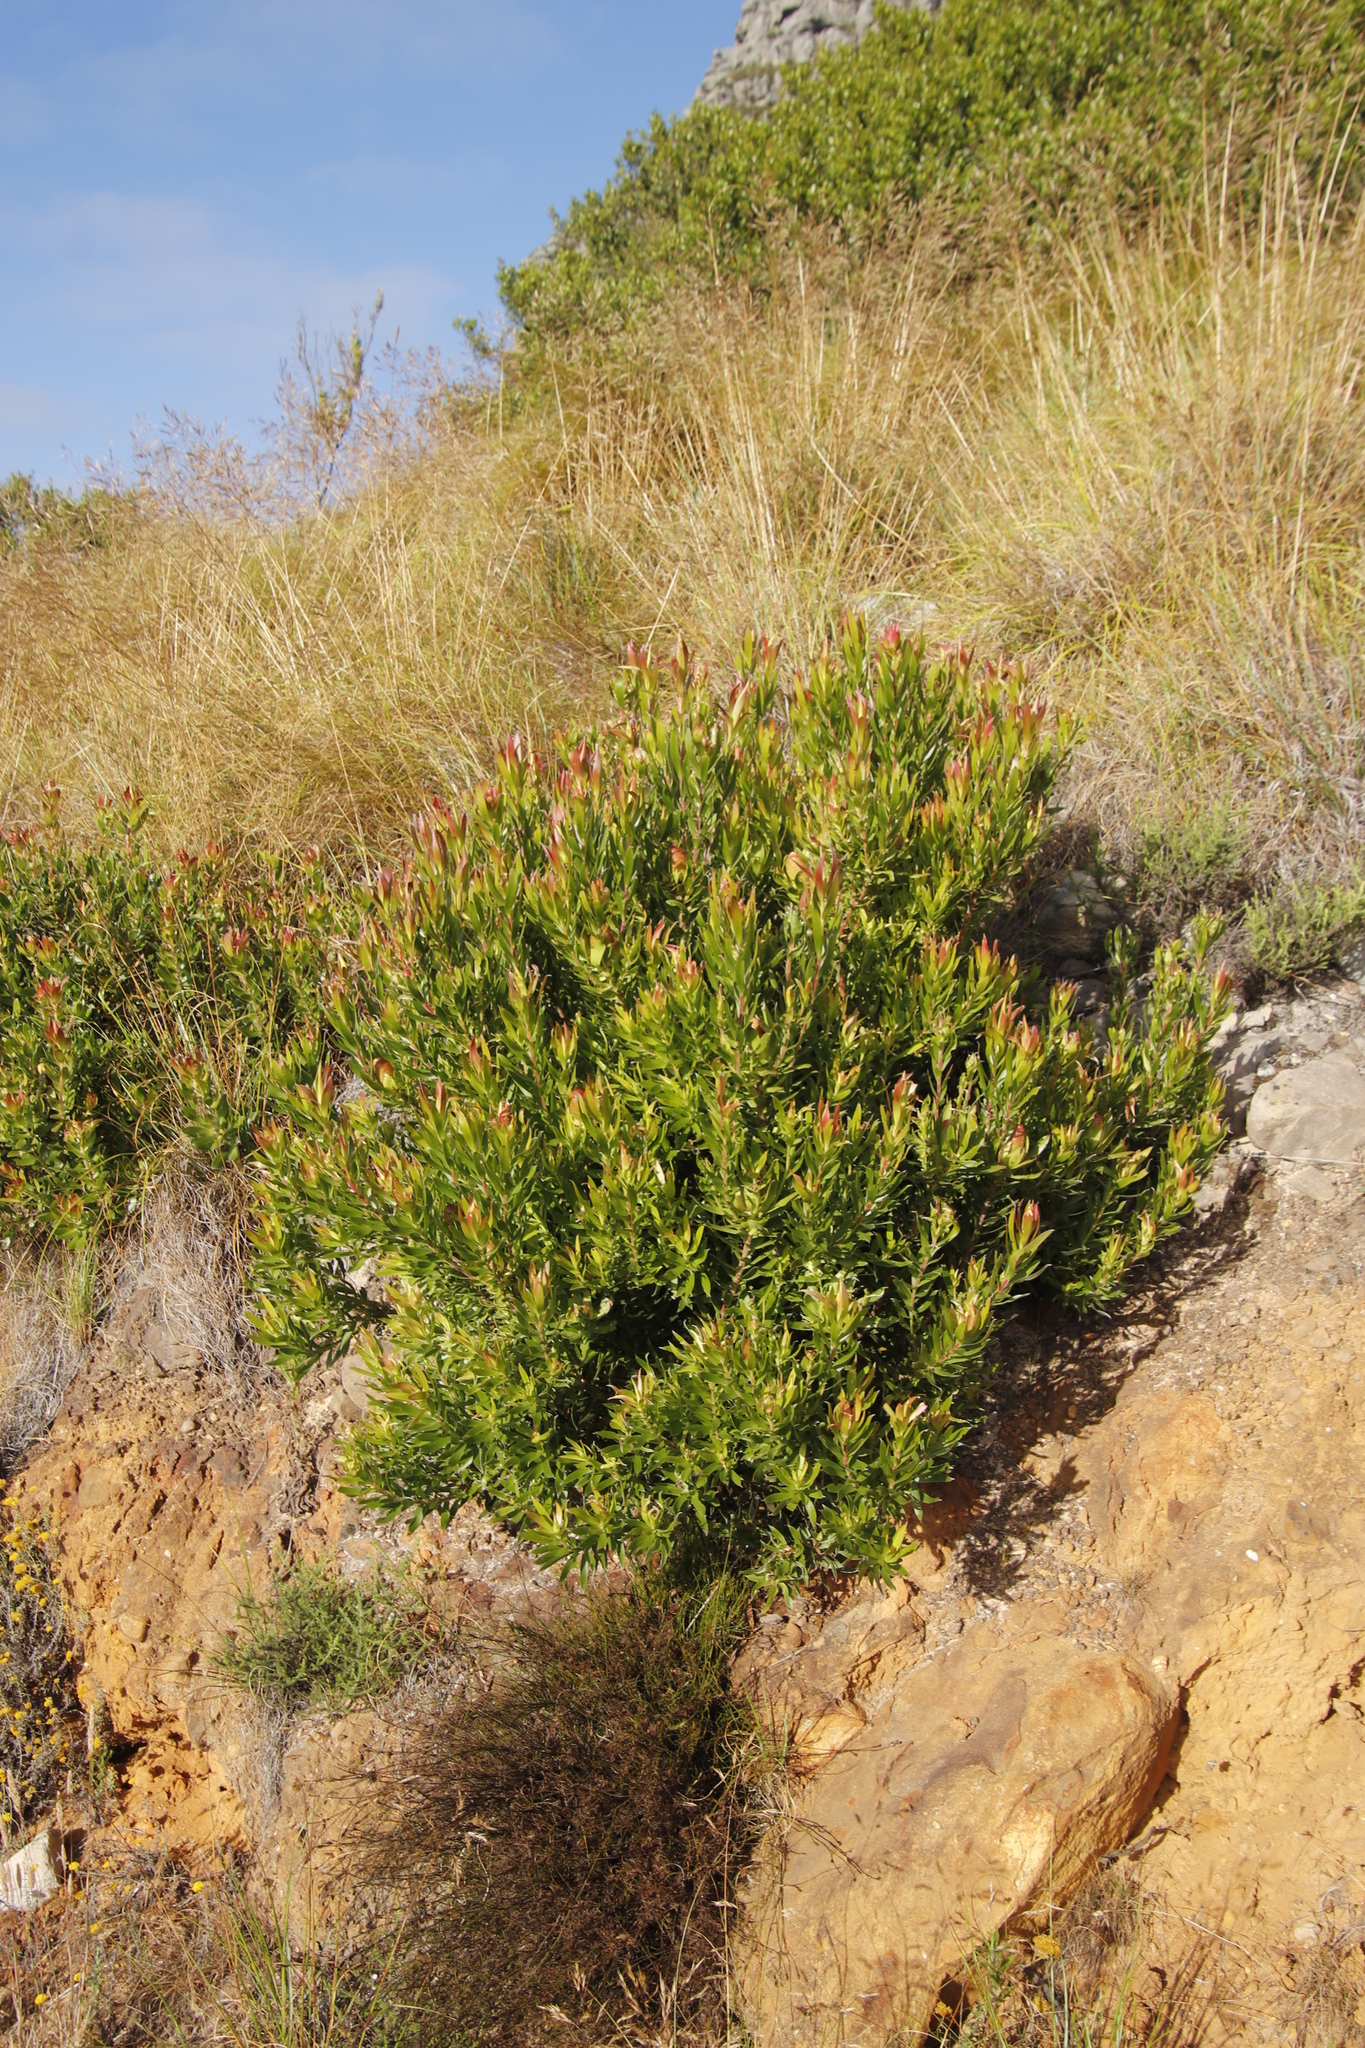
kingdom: Plantae
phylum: Tracheophyta
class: Magnoliopsida
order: Proteales
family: Proteaceae
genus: Leucadendron
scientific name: Leucadendron
